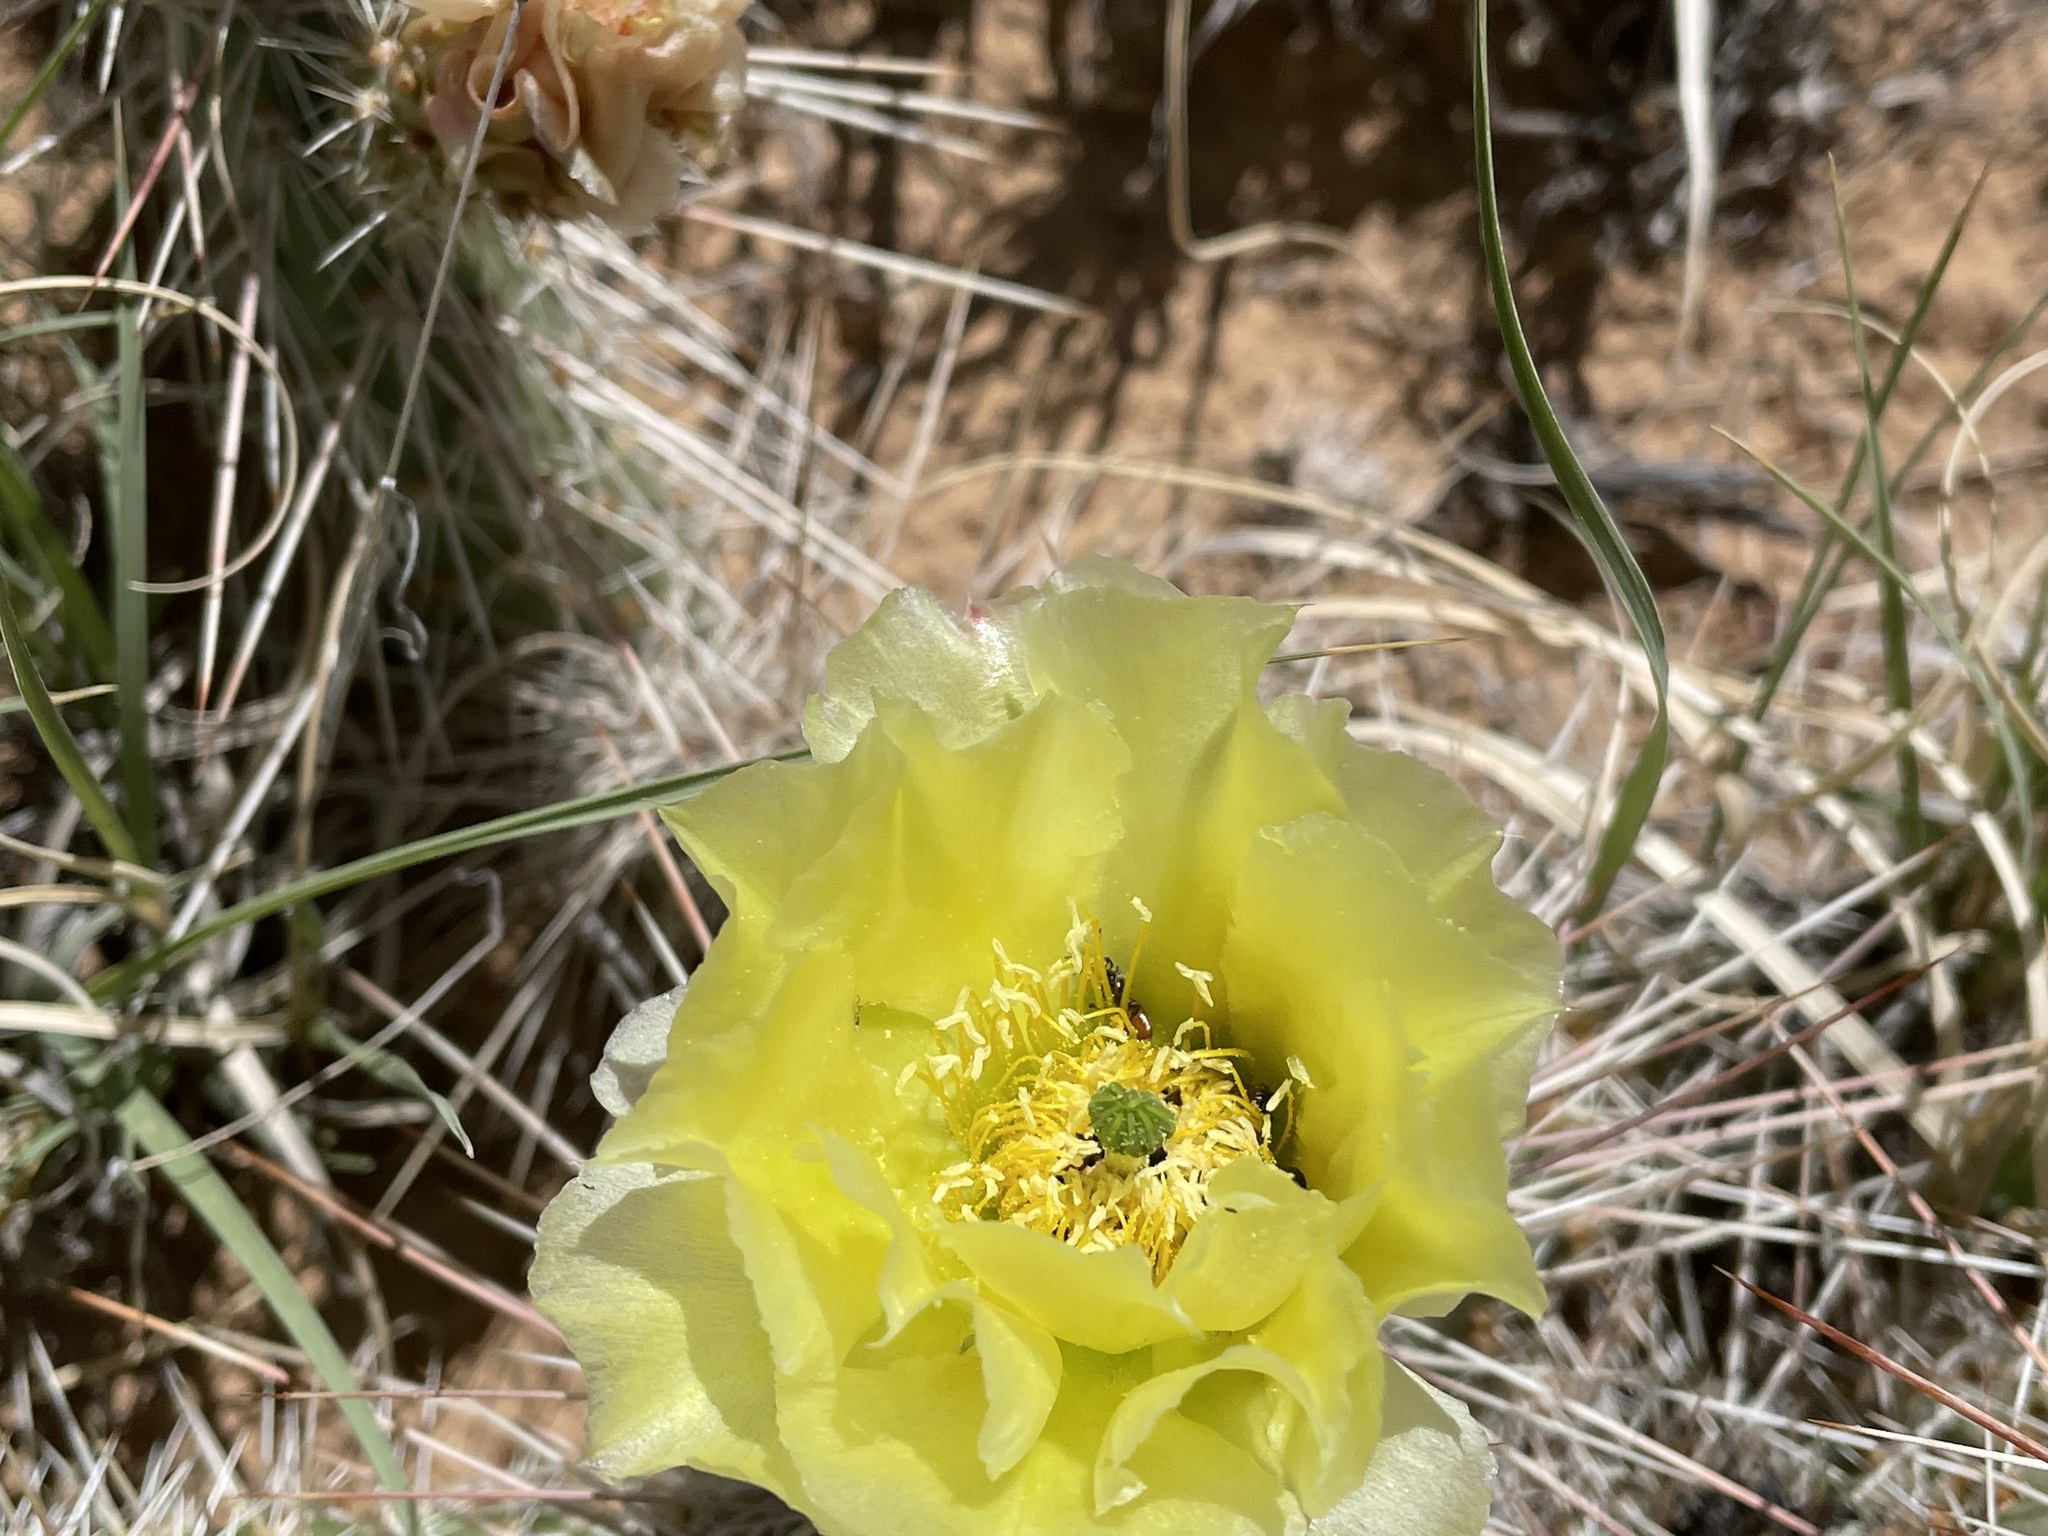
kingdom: Plantae
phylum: Tracheophyta
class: Magnoliopsida
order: Caryophyllales
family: Cactaceae
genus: Opuntia
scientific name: Opuntia polyacantha
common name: Plains prickly-pear
